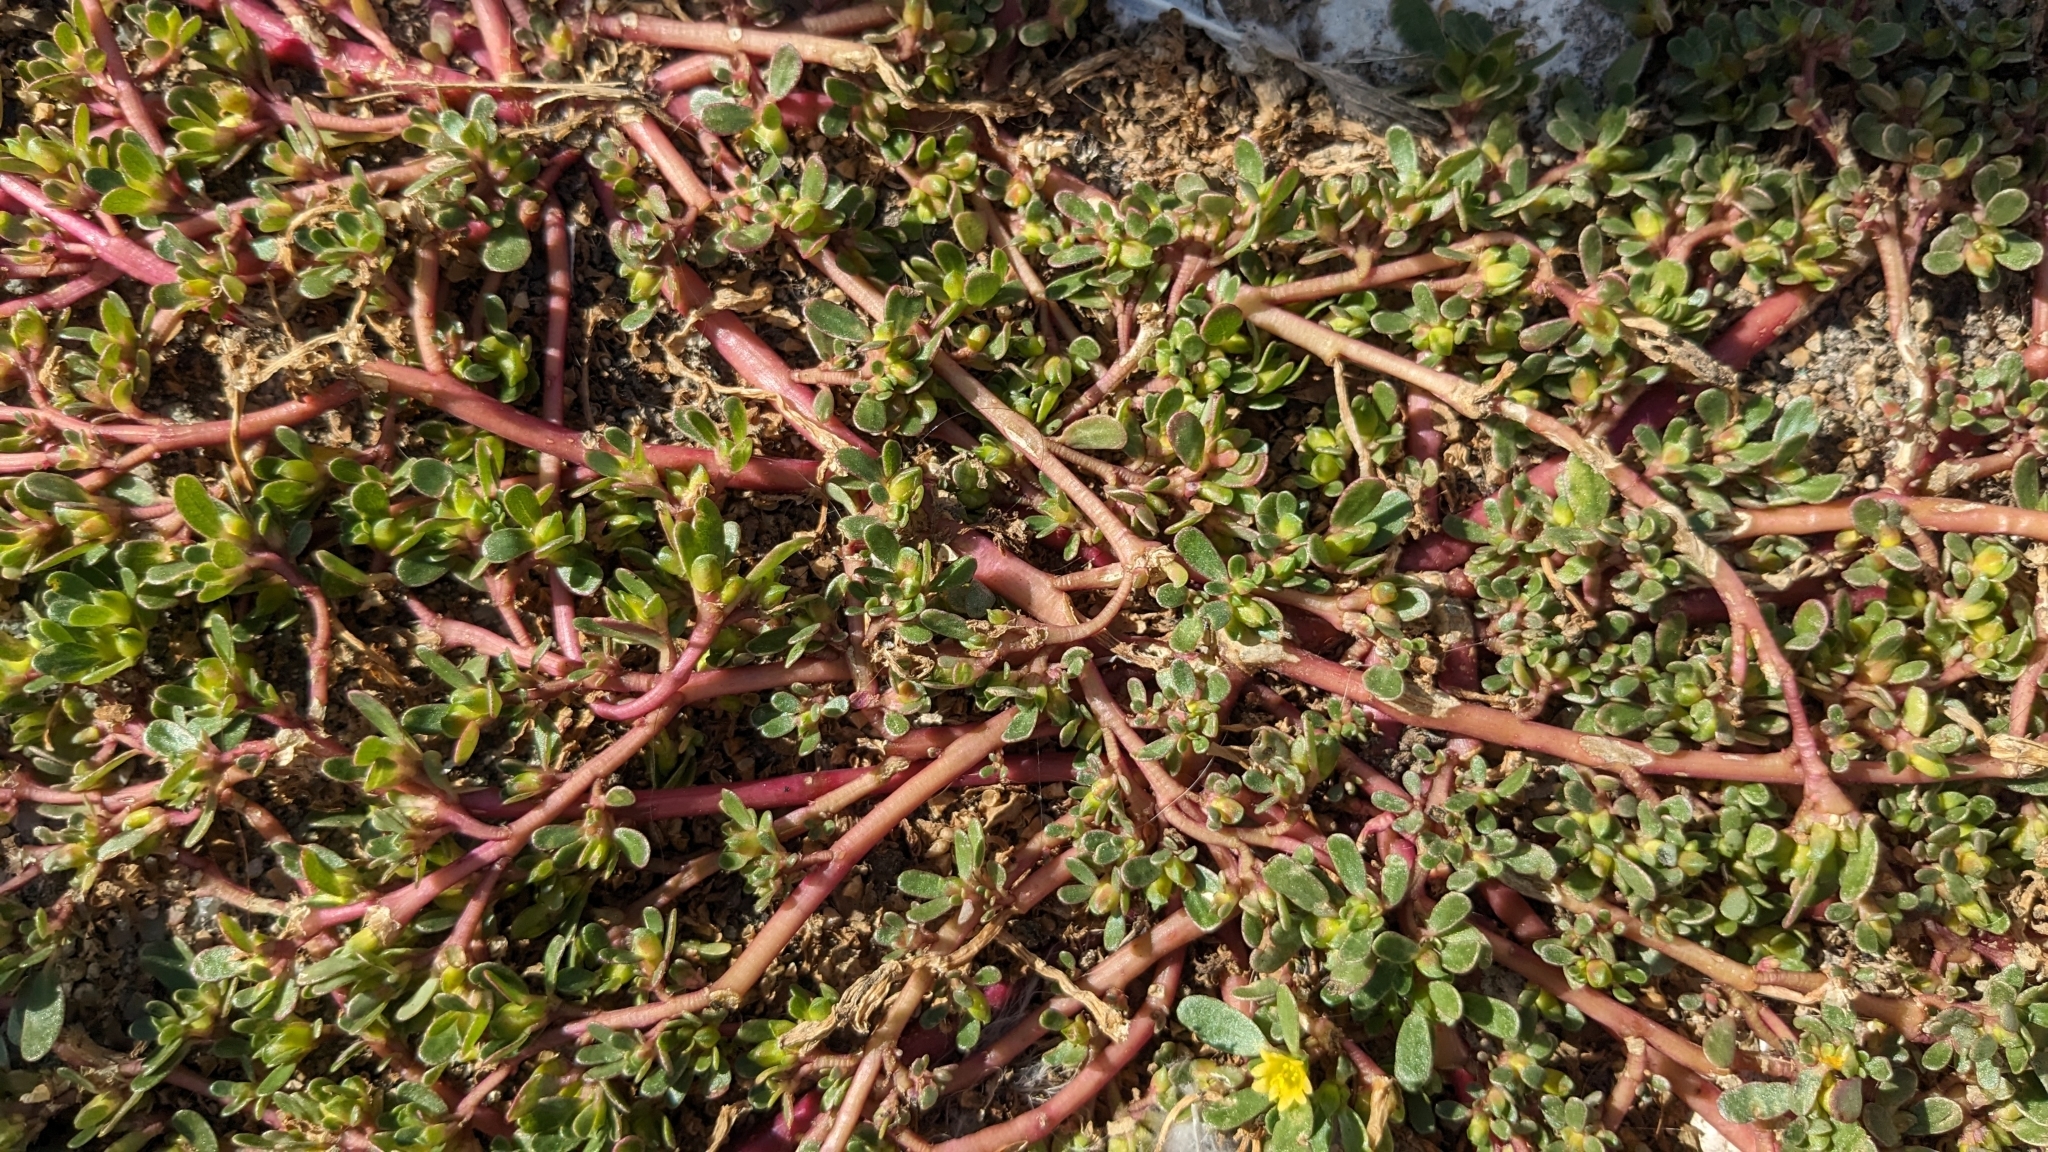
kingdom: Plantae
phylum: Tracheophyta
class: Magnoliopsida
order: Caryophyllales
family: Portulacaceae
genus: Portulaca
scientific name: Portulaca oleracea
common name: Common purslane
